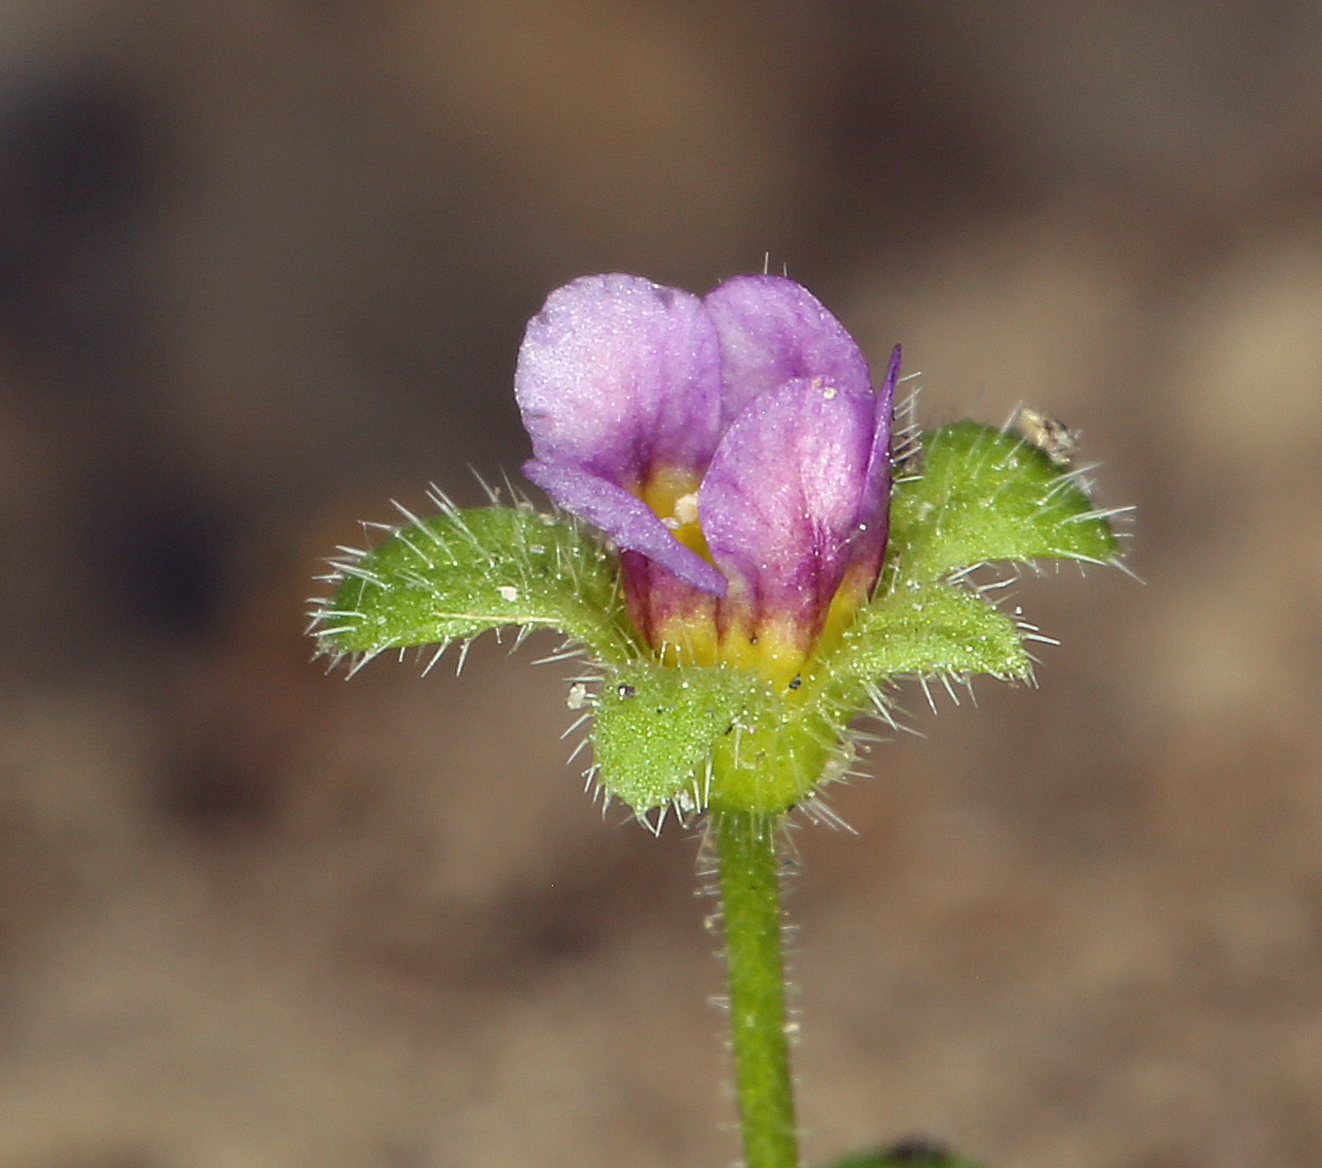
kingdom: Plantae
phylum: Tracheophyta
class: Magnoliopsida
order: Boraginales
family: Hydrophyllaceae
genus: Eucrypta
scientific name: Eucrypta micrantha
